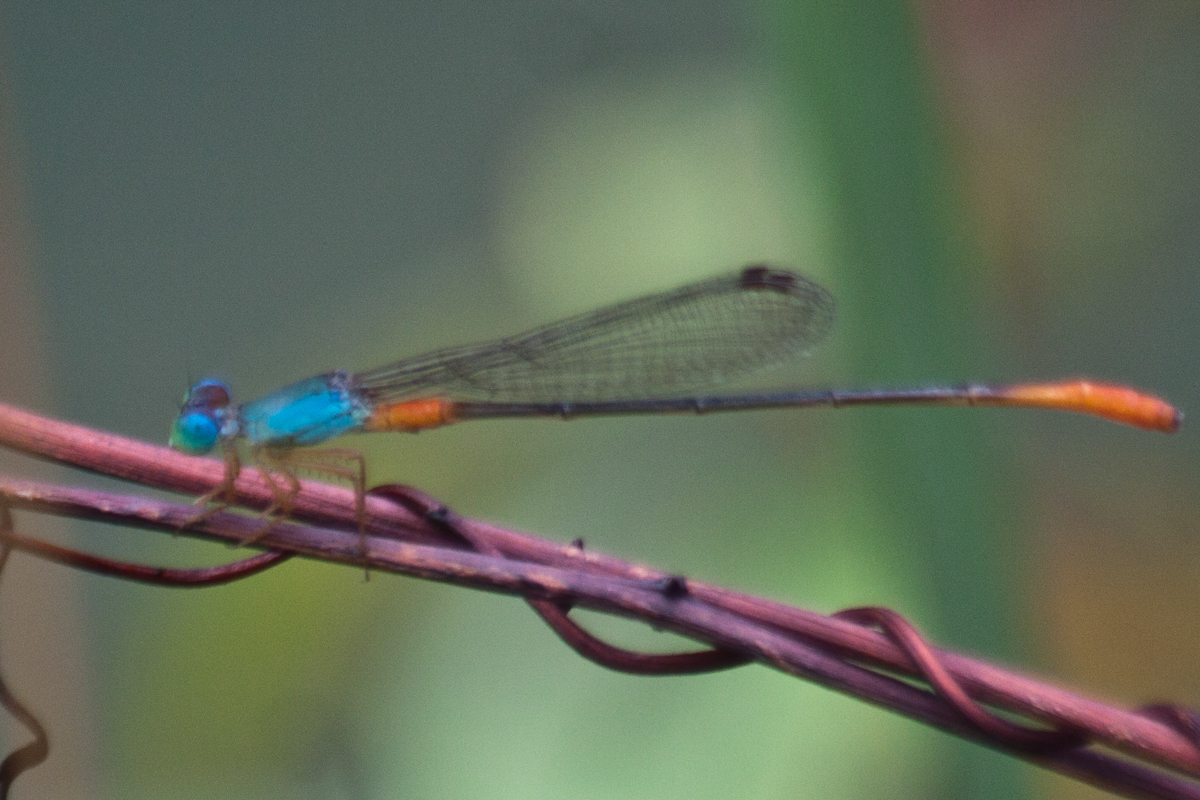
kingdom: Animalia
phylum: Arthropoda
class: Insecta
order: Odonata
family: Coenagrionidae
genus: Ceriagrion
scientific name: Ceriagrion cerinorubellum
